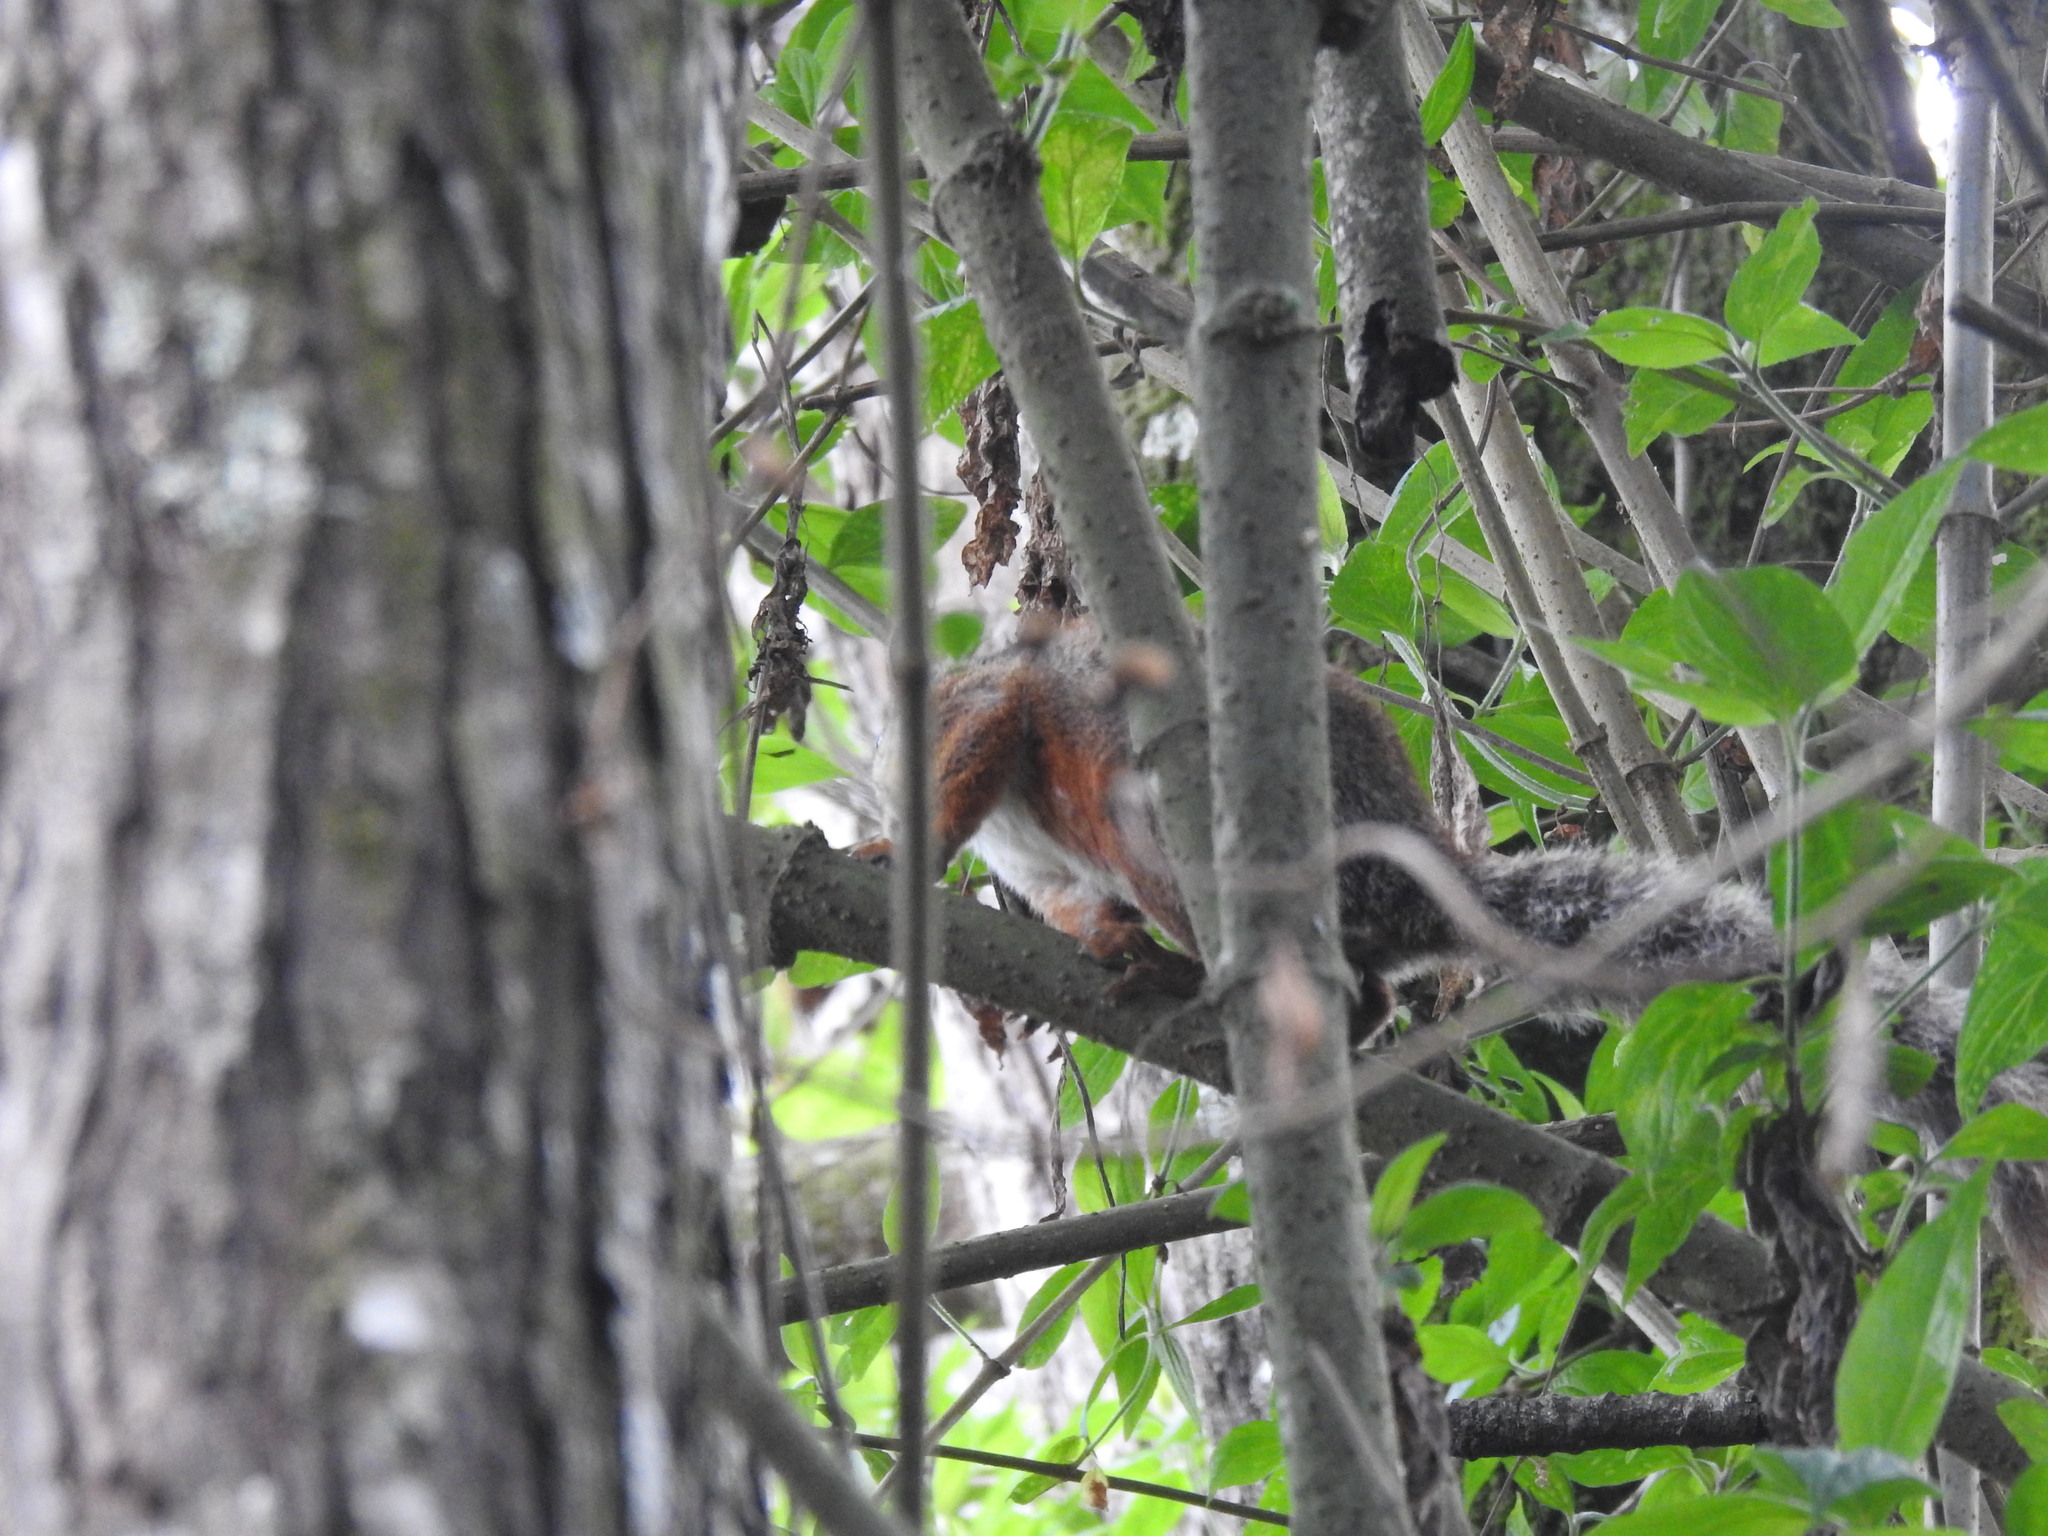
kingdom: Animalia
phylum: Chordata
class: Mammalia
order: Rodentia
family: Sciuridae
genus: Sciurus
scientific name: Sciurus variegatoides
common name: Variegated squirrel
